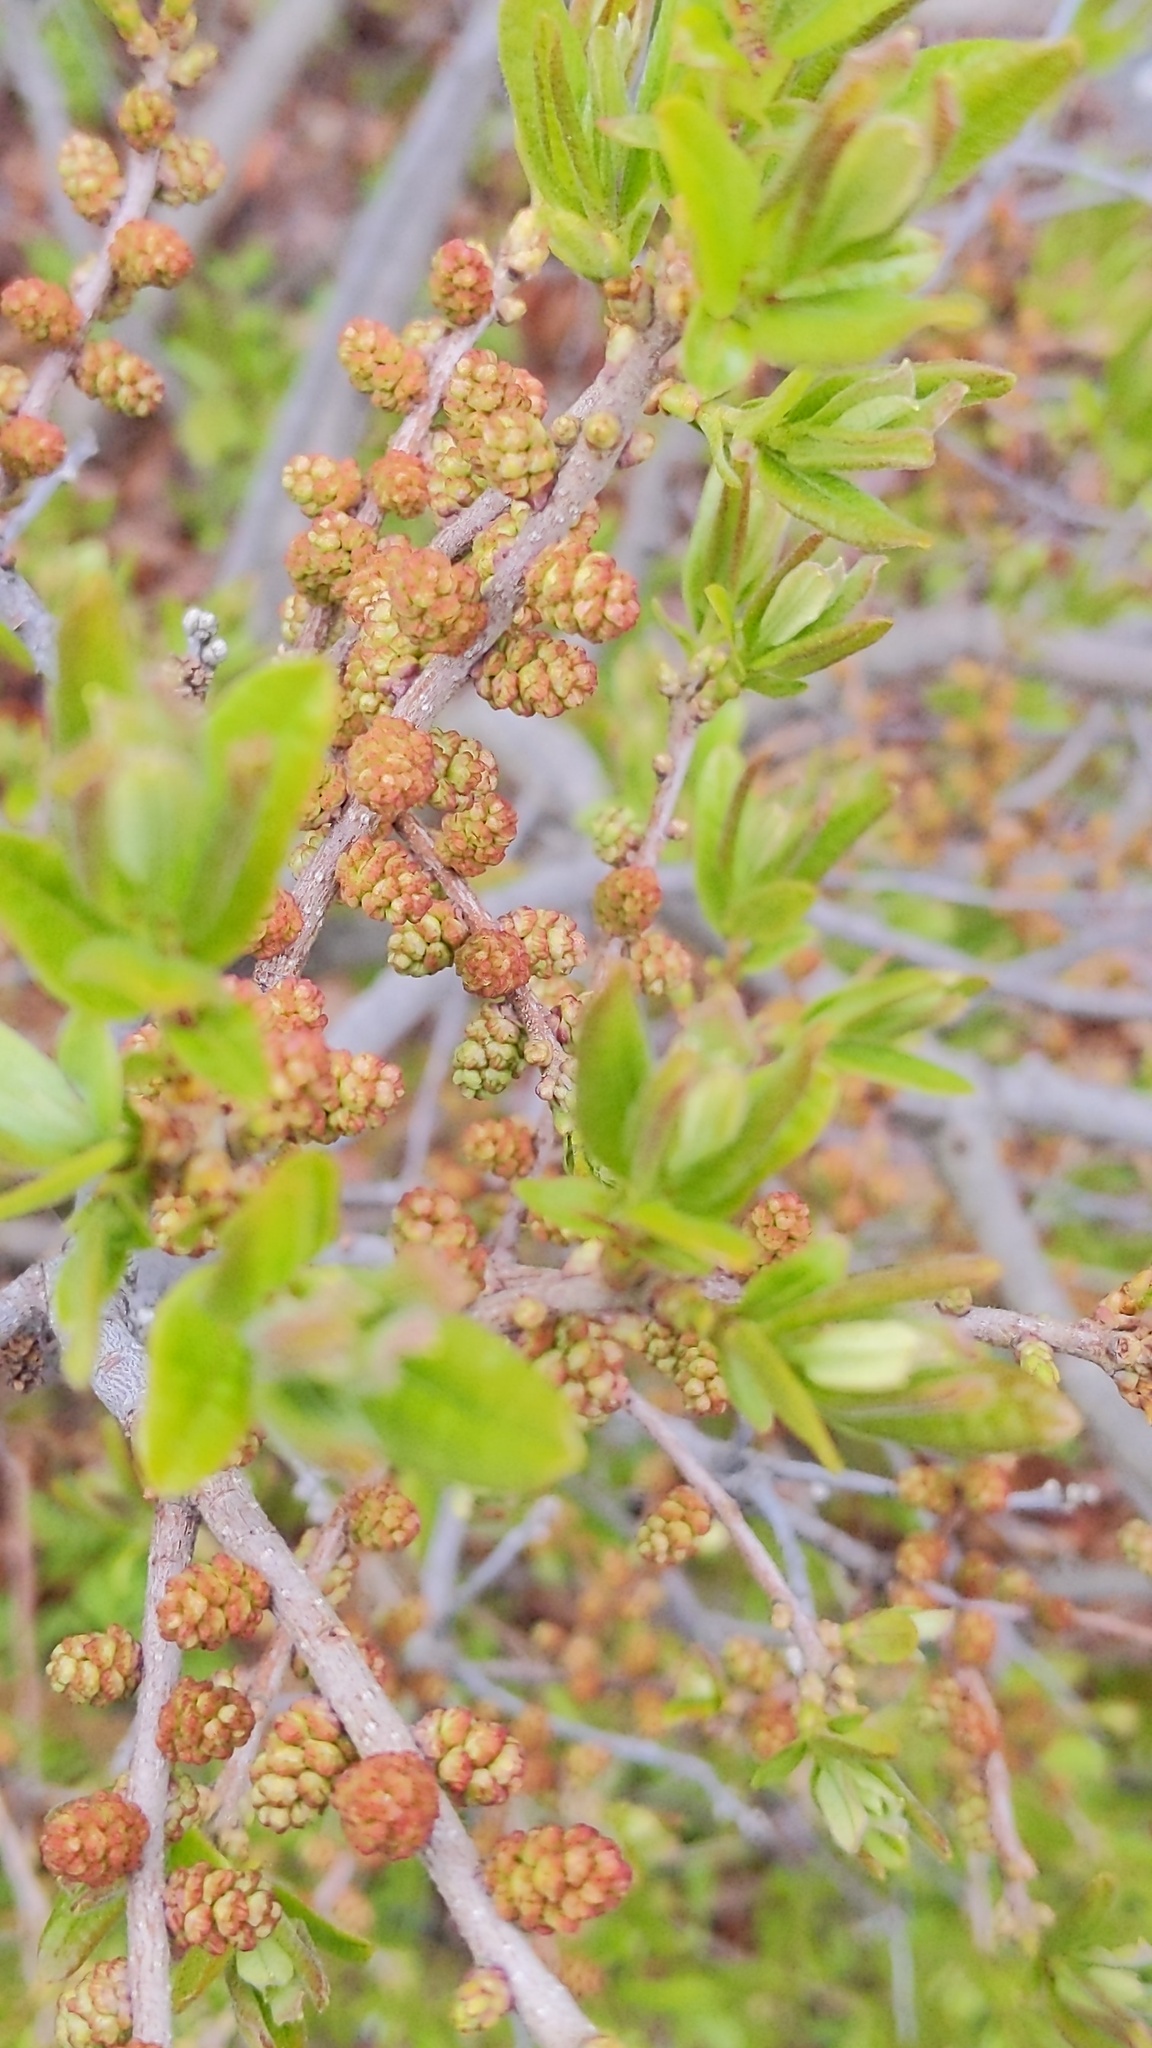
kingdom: Plantae
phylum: Tracheophyta
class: Magnoliopsida
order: Fagales
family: Myricaceae
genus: Morella
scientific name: Morella pensylvanica
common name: Northern bayberry
